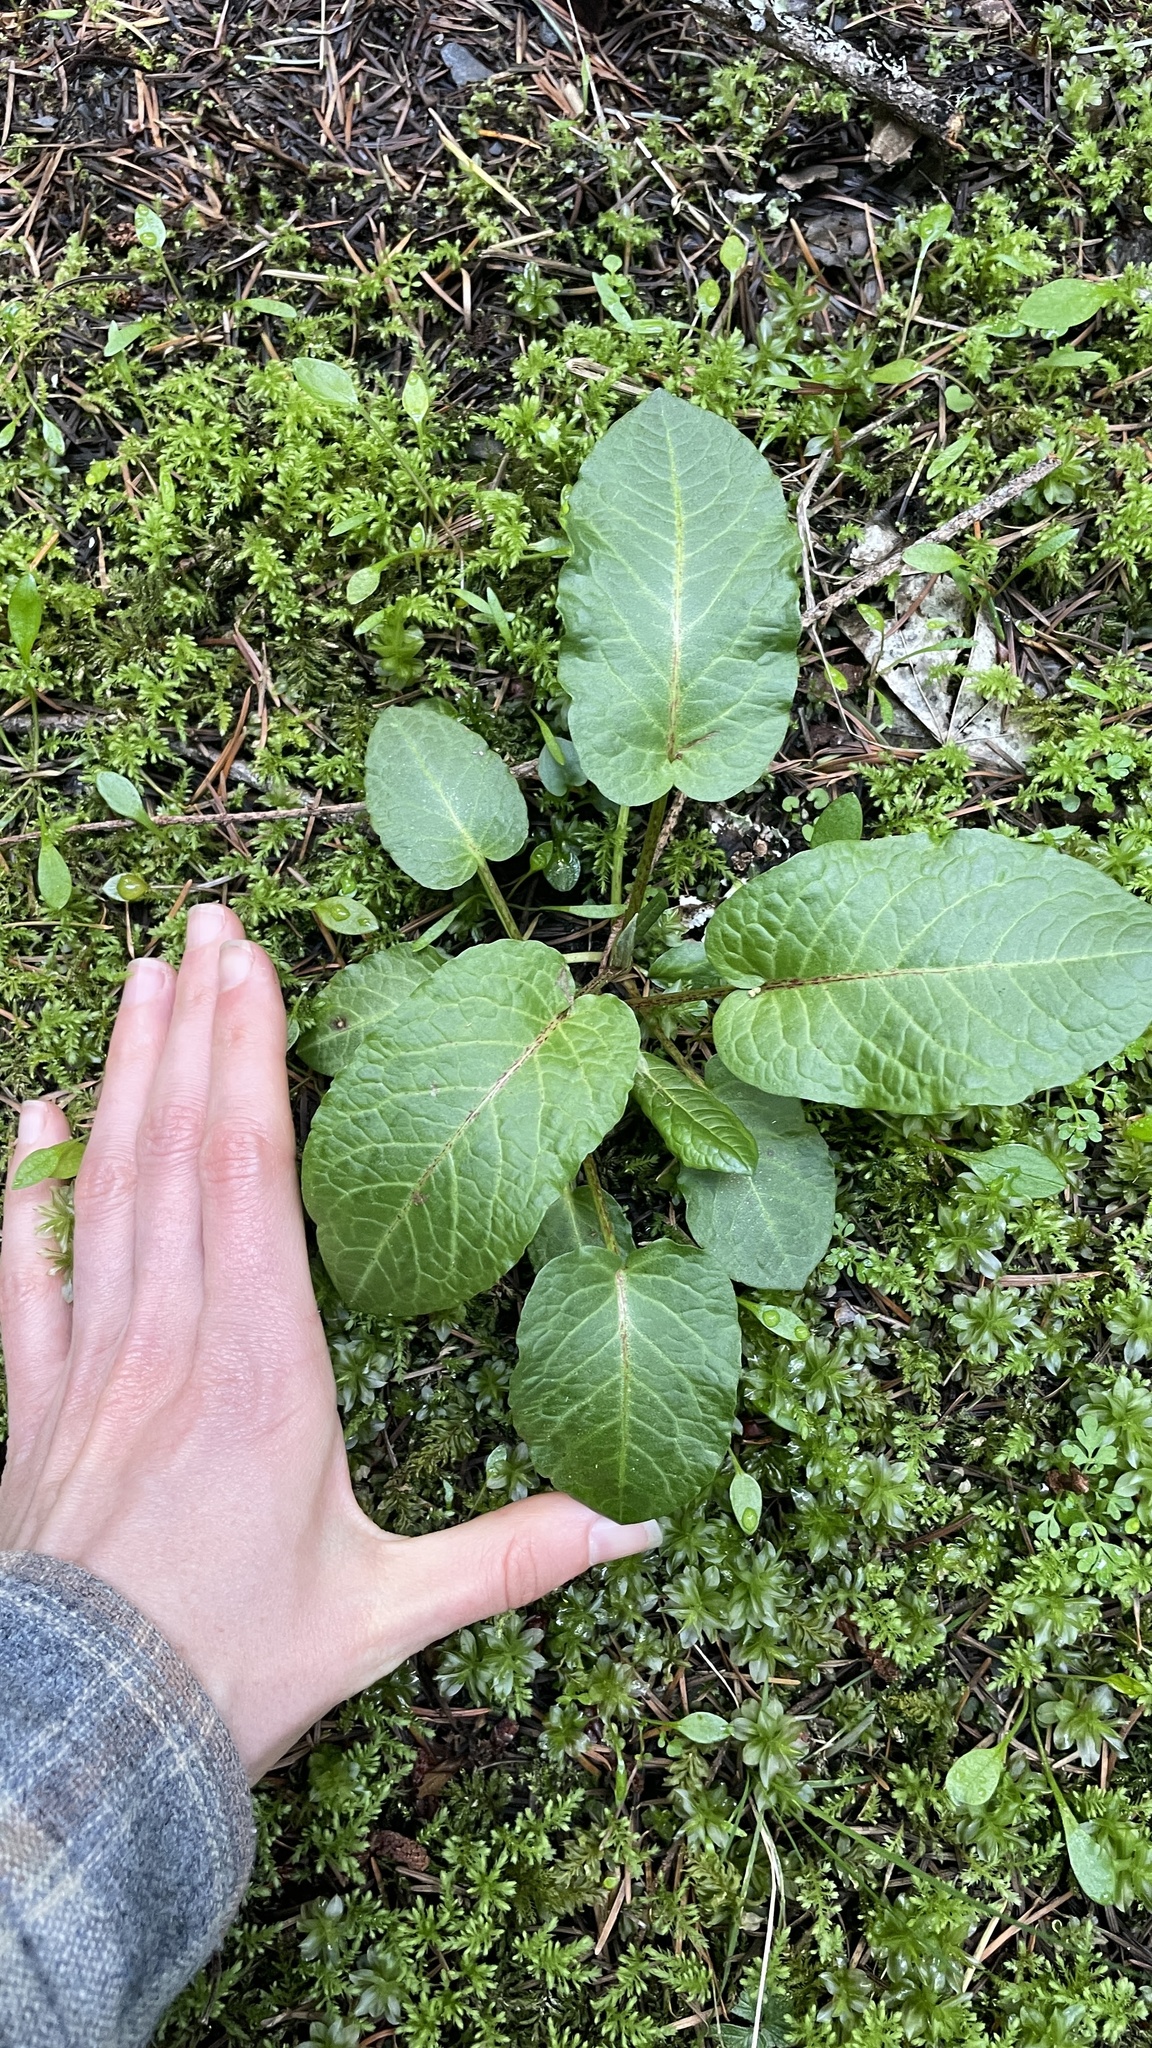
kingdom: Plantae
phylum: Tracheophyta
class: Magnoliopsida
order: Caryophyllales
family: Polygonaceae
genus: Rumex
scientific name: Rumex obtusifolius
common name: Bitter dock
